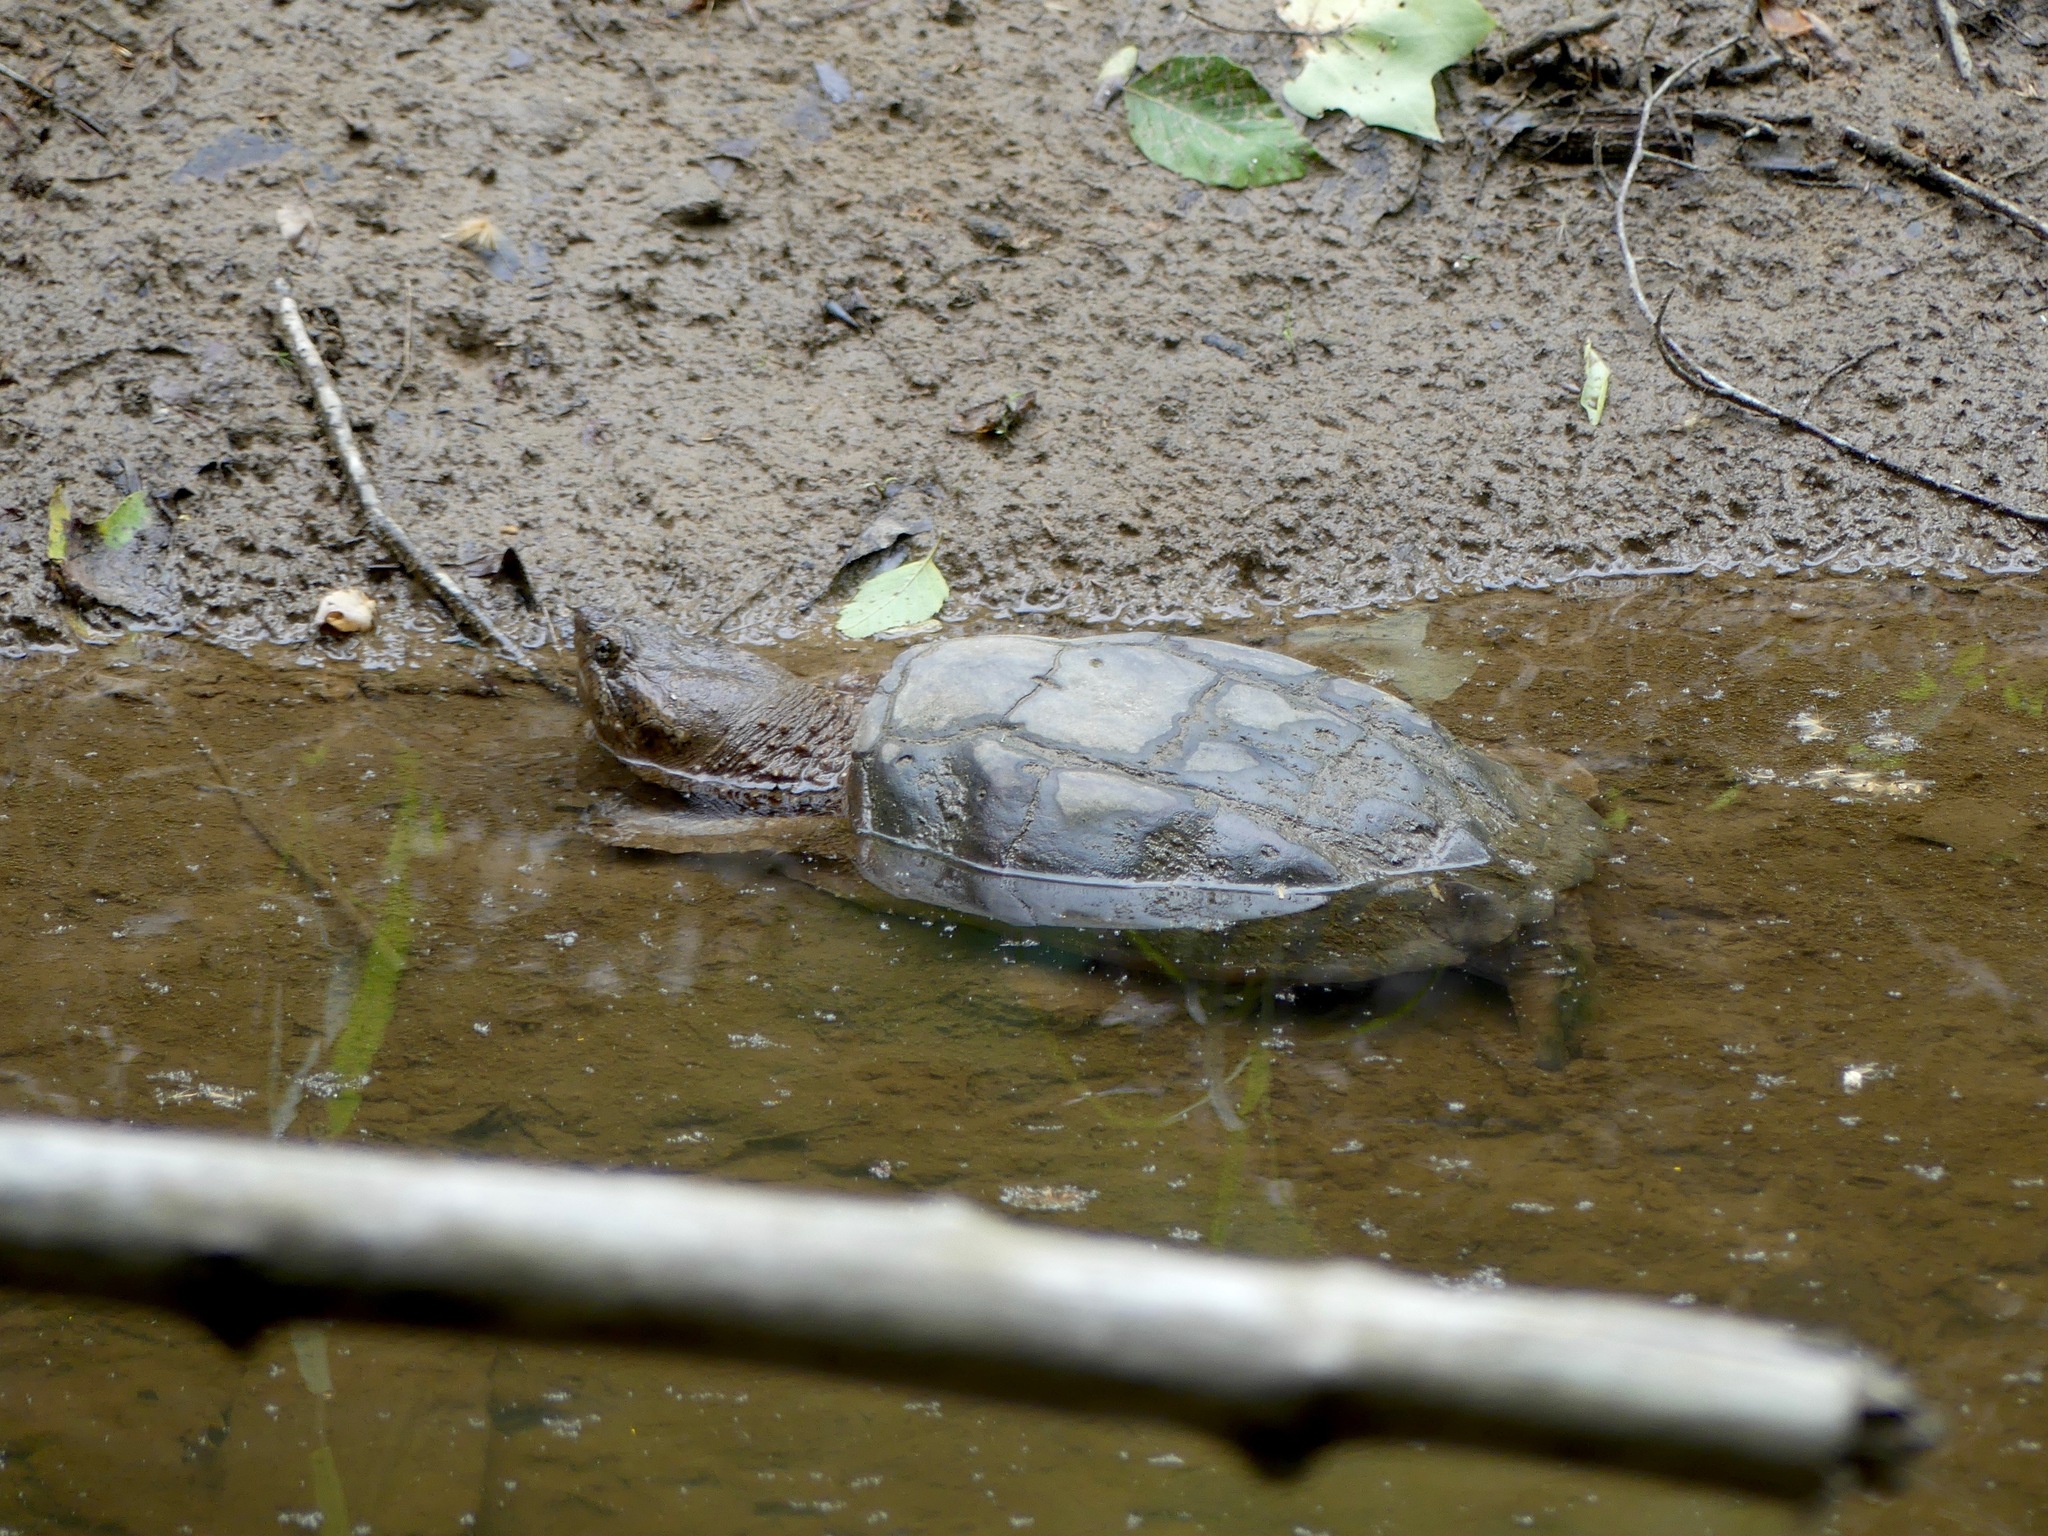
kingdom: Animalia
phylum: Chordata
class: Testudines
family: Chelydridae
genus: Chelydra
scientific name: Chelydra serpentina
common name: Common snapping turtle
